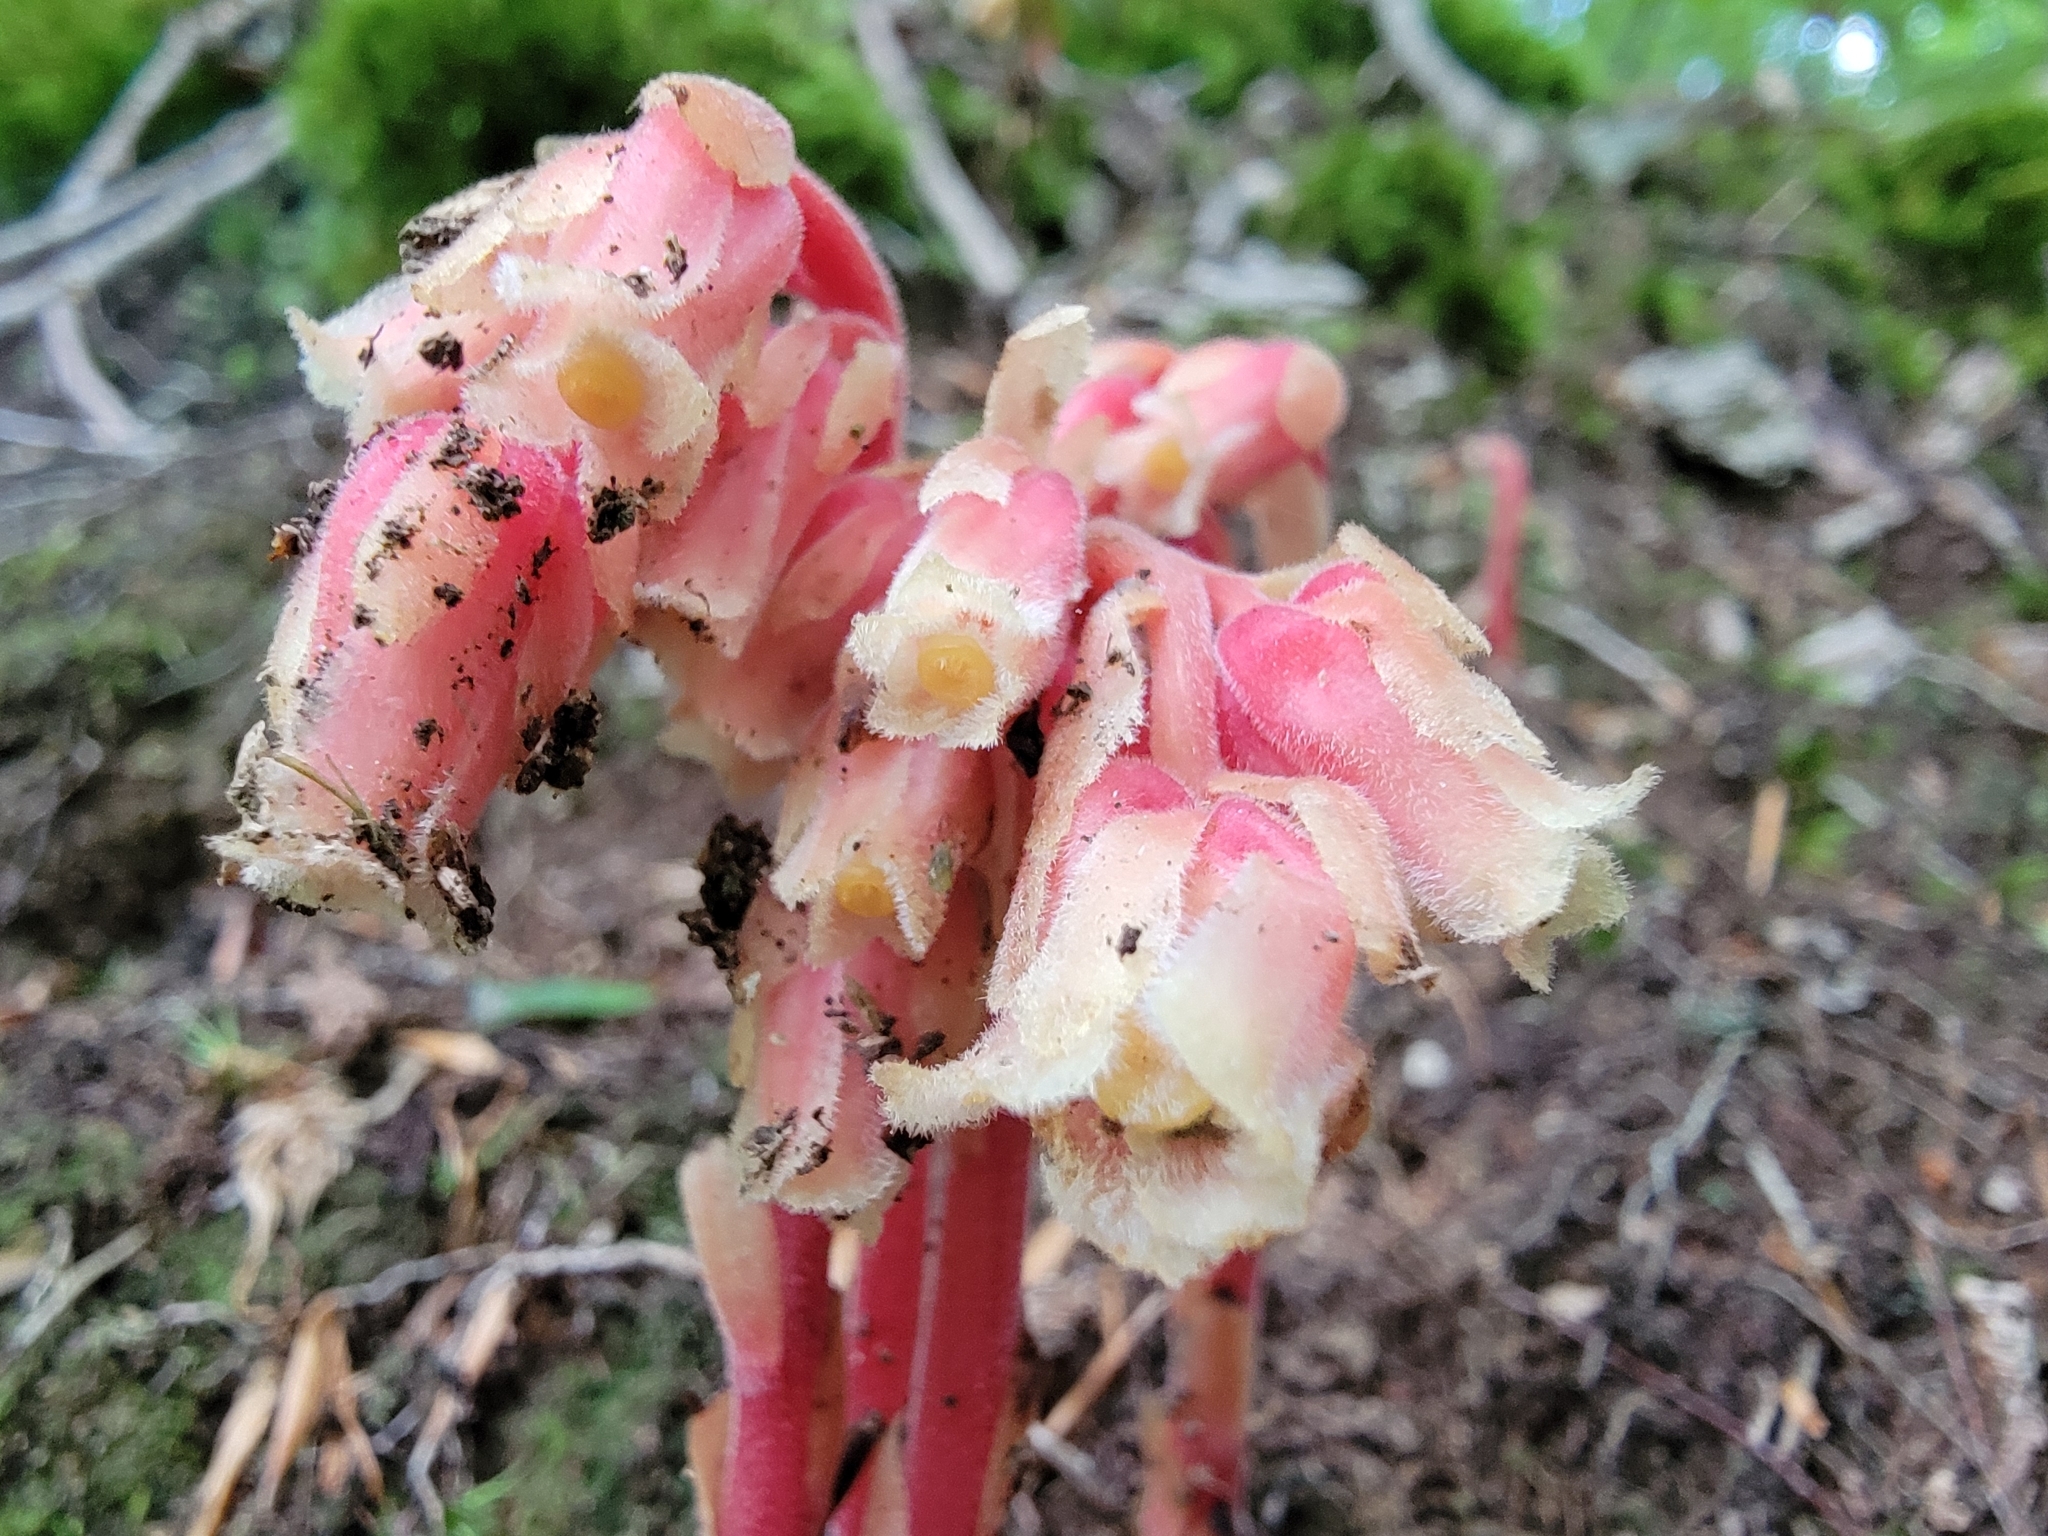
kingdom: Plantae
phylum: Tracheophyta
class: Magnoliopsida
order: Ericales
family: Ericaceae
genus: Hypopitys
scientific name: Hypopitys monotropa
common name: Yellow bird's-nest
